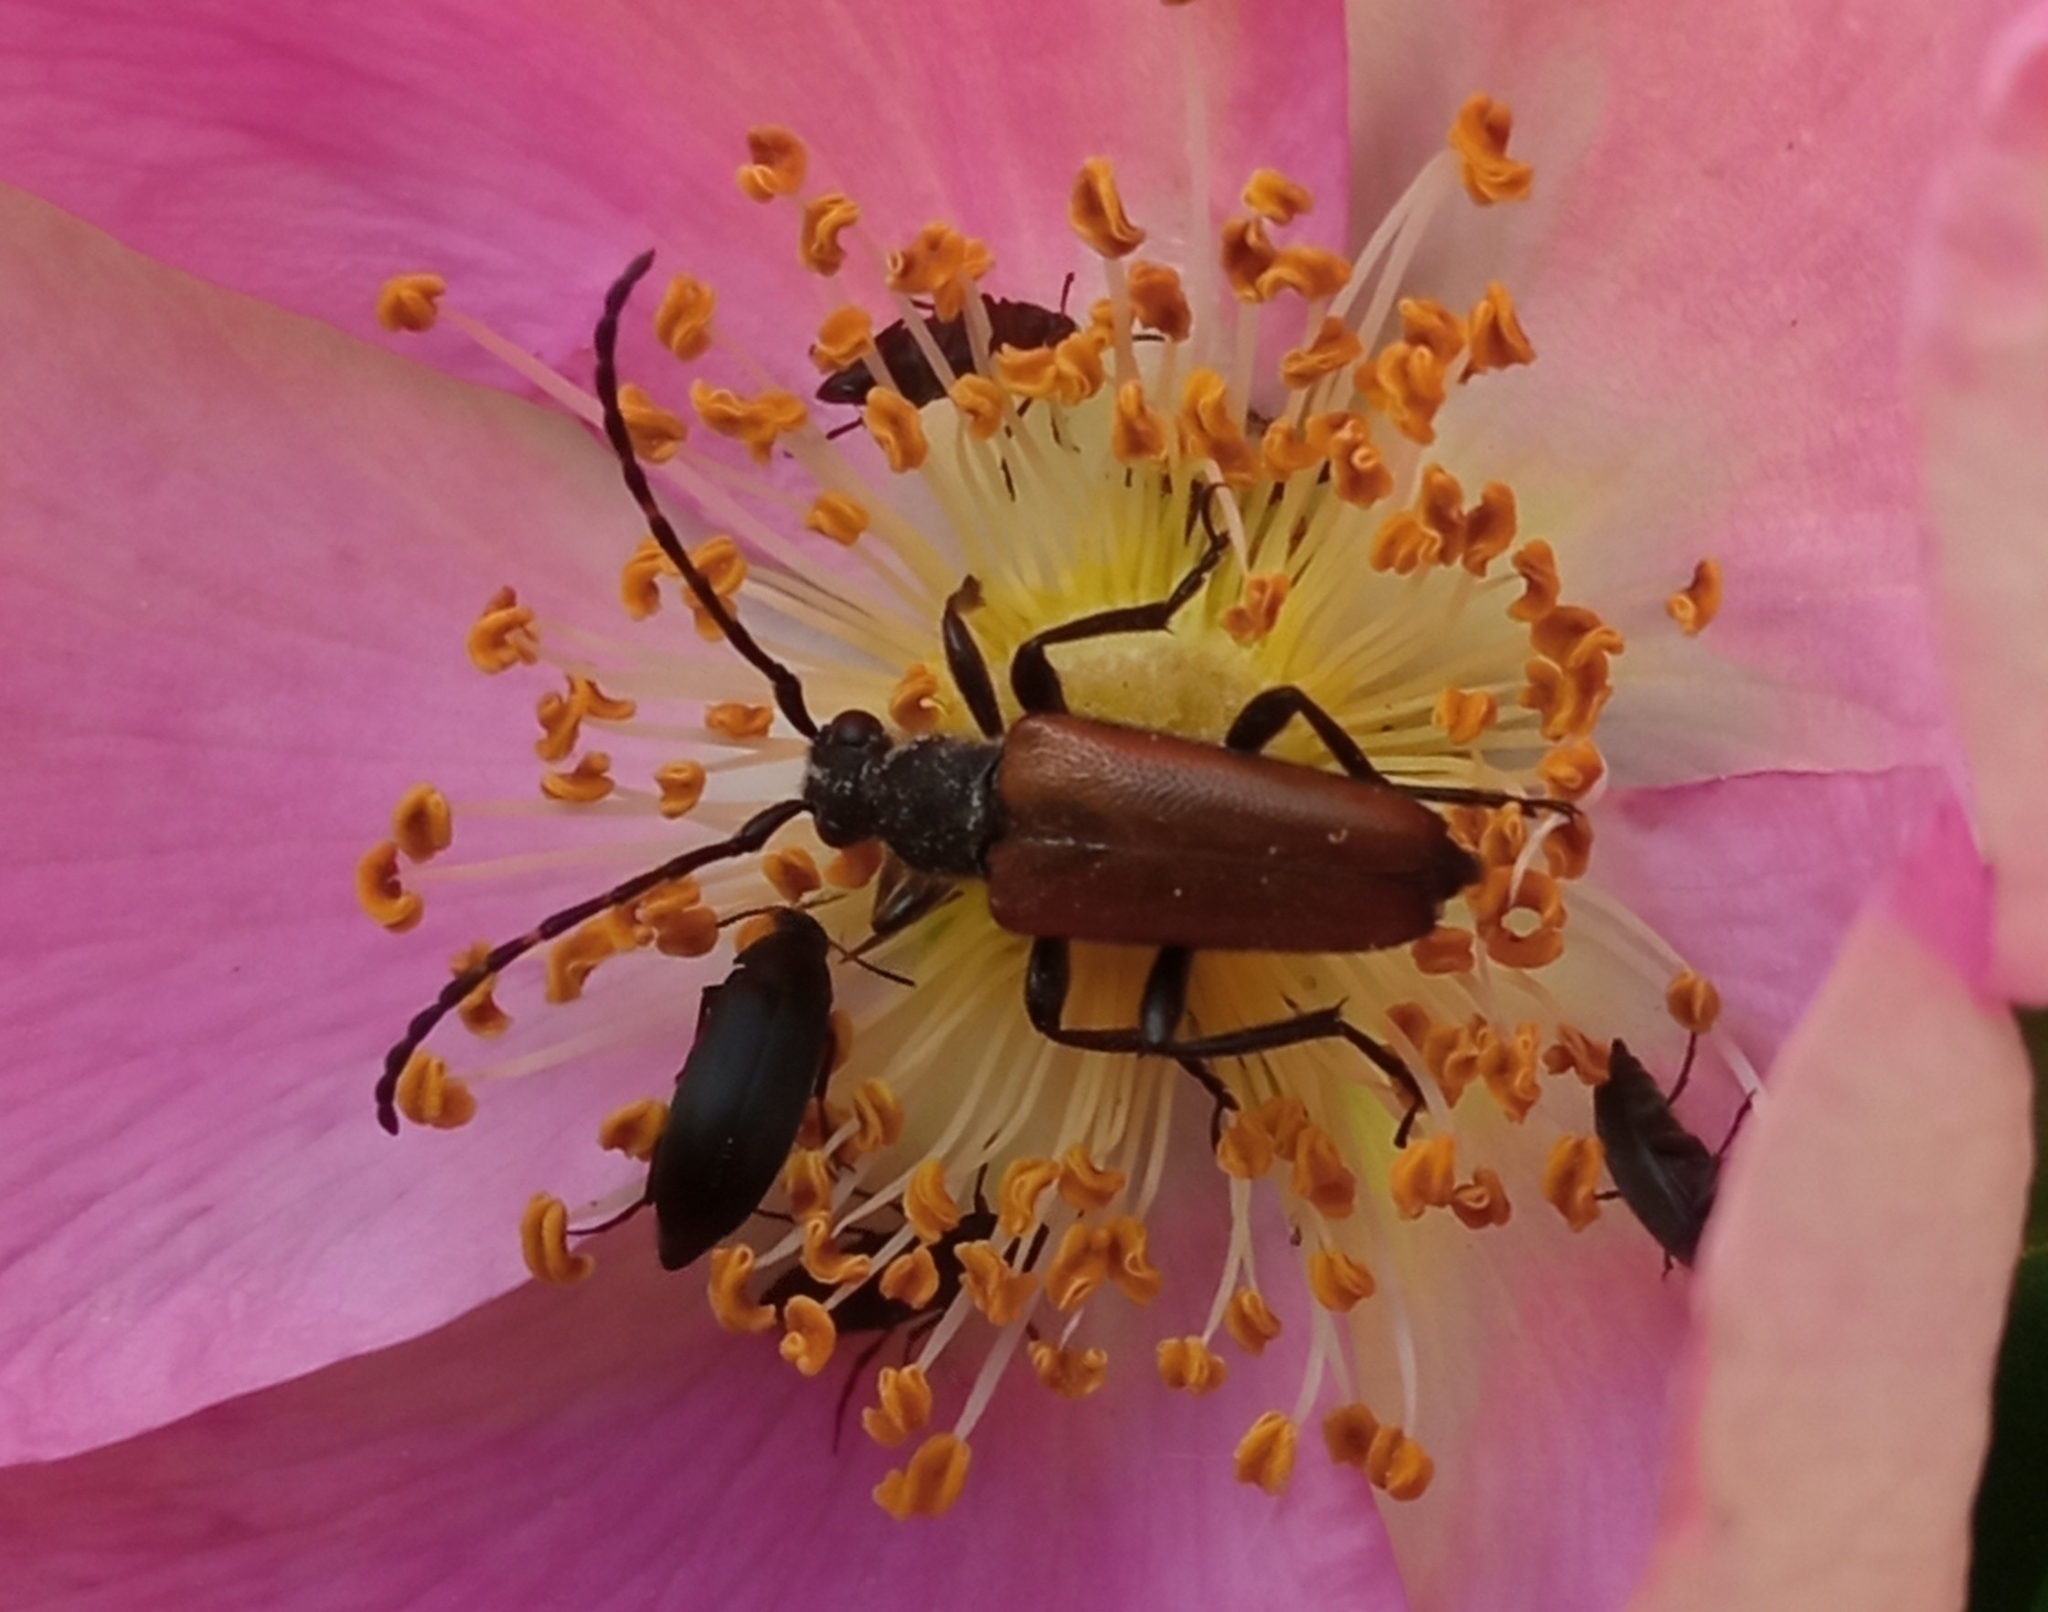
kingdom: Animalia
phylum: Arthropoda
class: Insecta
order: Coleoptera
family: Cerambycidae
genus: Paracorymbia
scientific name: Paracorymbia maculicornis
